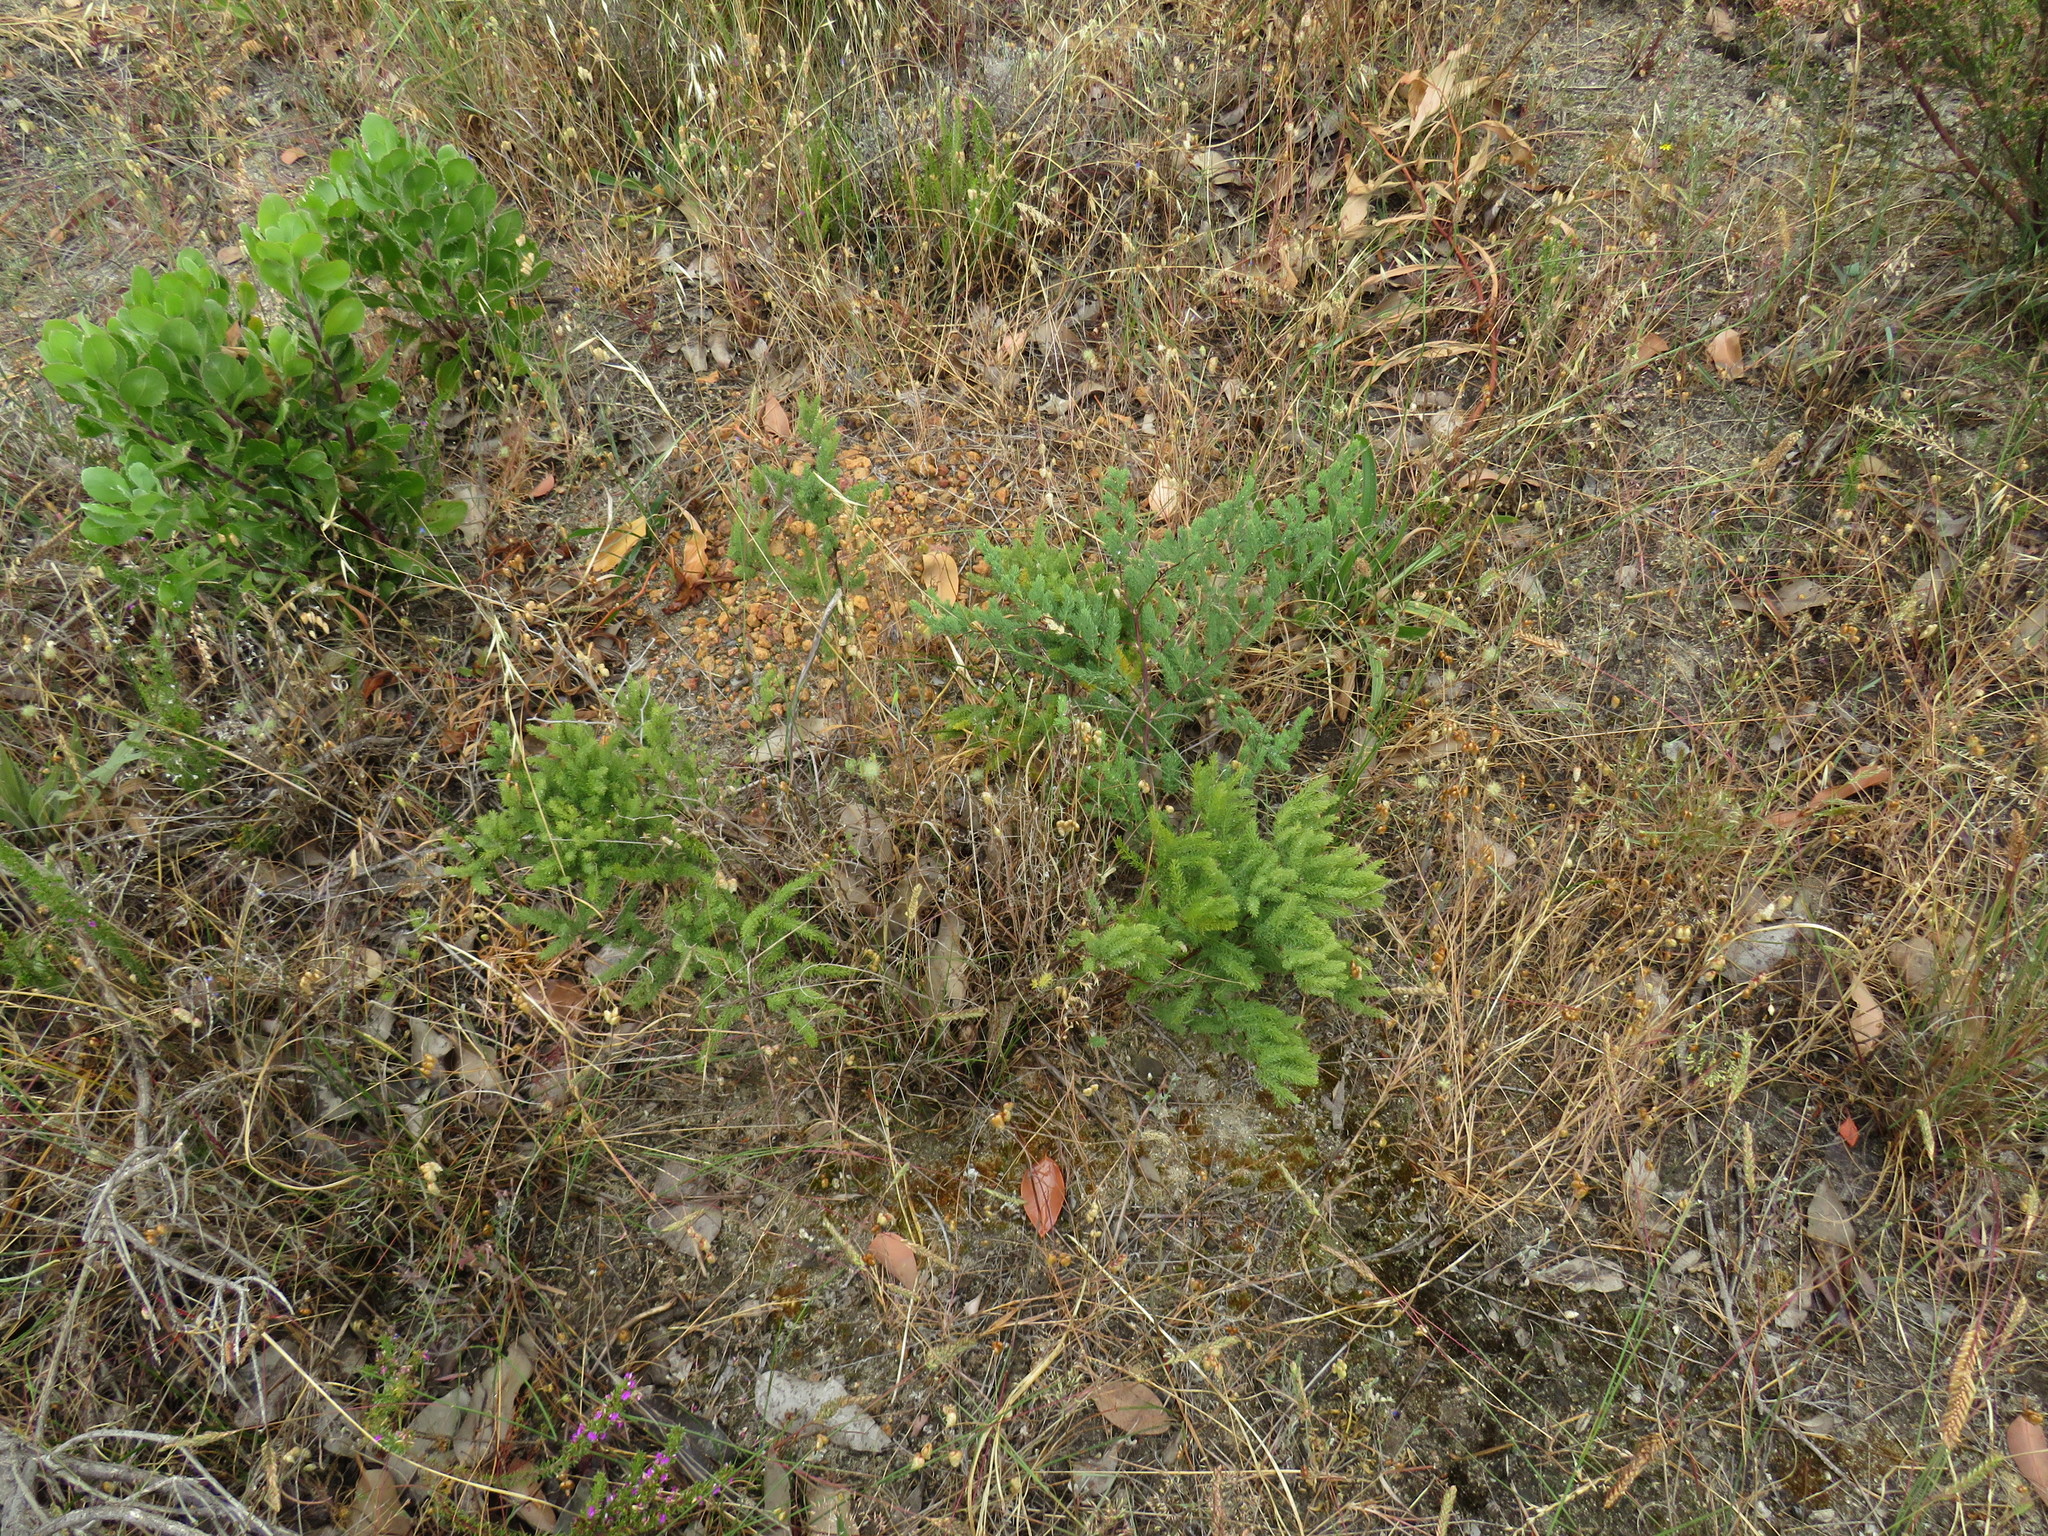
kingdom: Plantae
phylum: Tracheophyta
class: Liliopsida
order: Asparagales
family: Asparagaceae
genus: Asparagus
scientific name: Asparagus rubicundus
